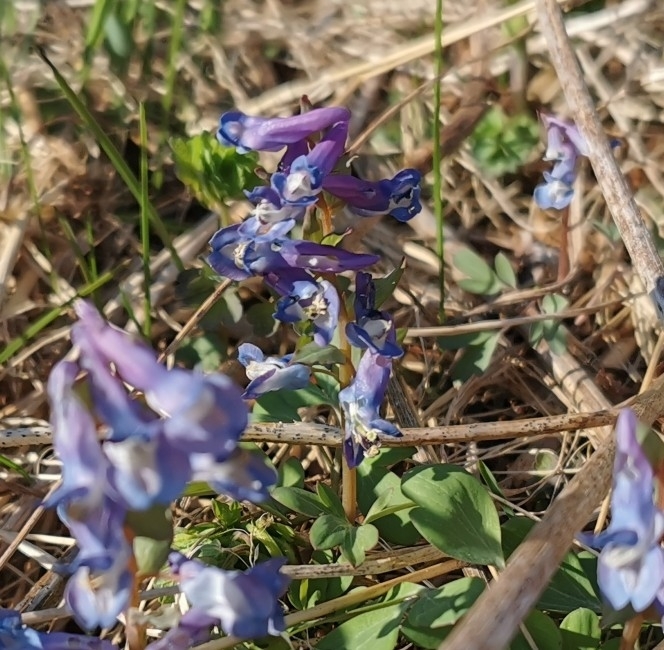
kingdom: Plantae
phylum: Tracheophyta
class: Magnoliopsida
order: Ranunculales
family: Papaveraceae
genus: Corydalis
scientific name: Corydalis ambigua
